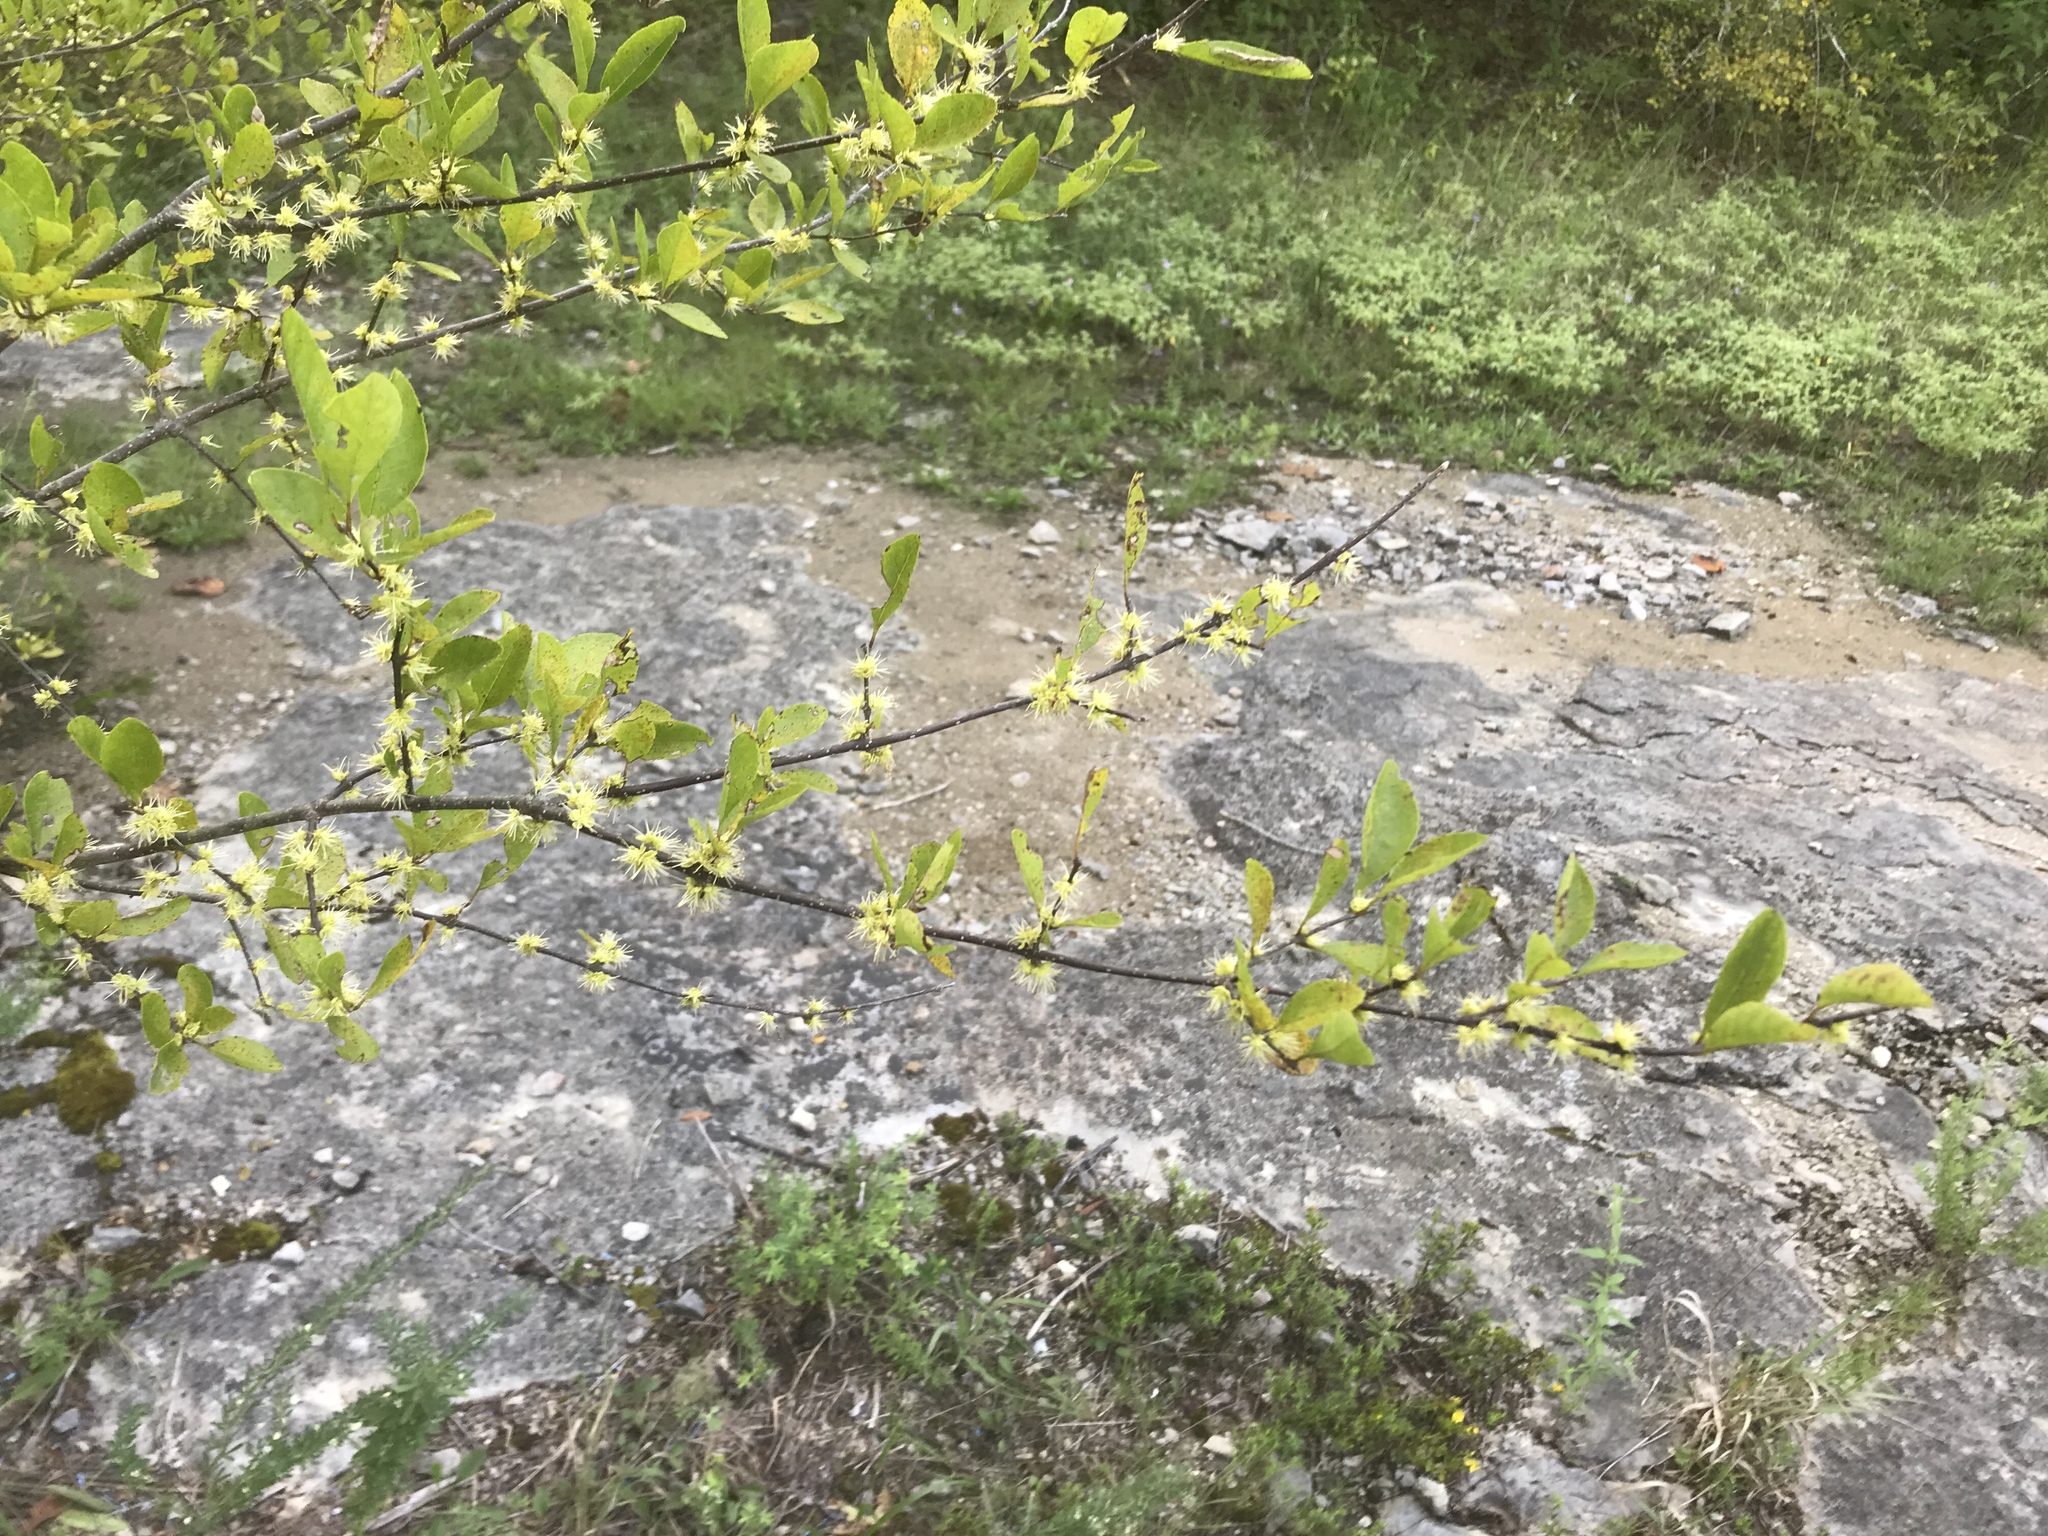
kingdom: Plantae
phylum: Tracheophyta
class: Magnoliopsida
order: Lamiales
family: Oleaceae
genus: Forestiera
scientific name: Forestiera ligustrina
